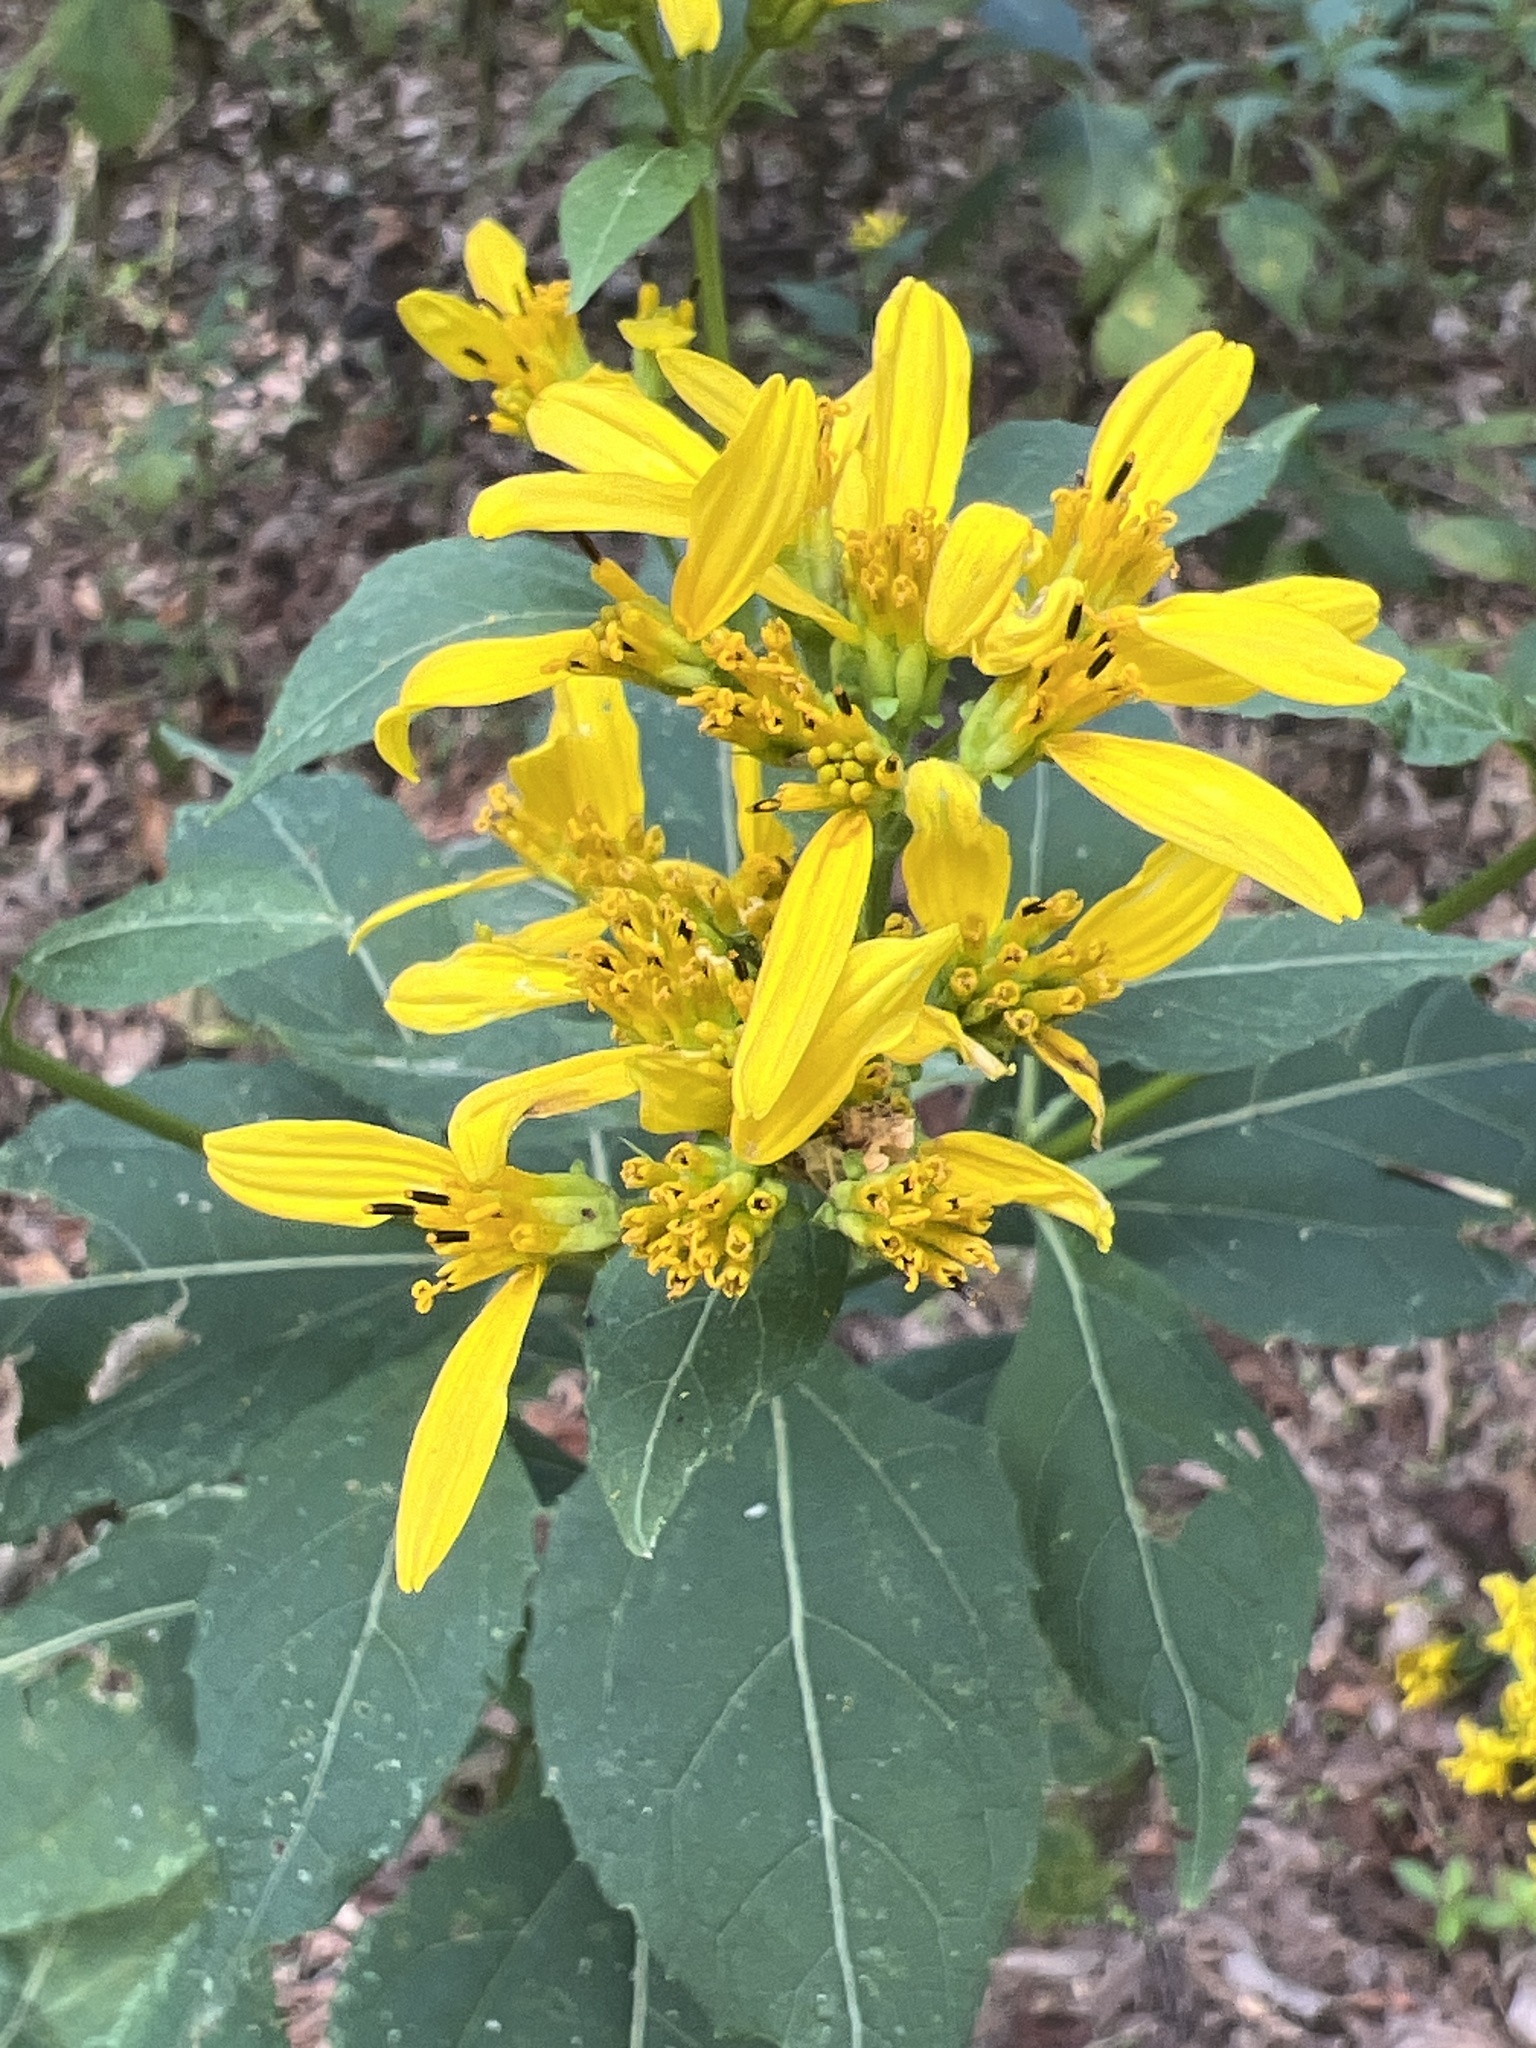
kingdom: Plantae
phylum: Tracheophyta
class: Magnoliopsida
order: Asterales
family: Asteraceae
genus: Verbesina
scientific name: Verbesina occidentalis
